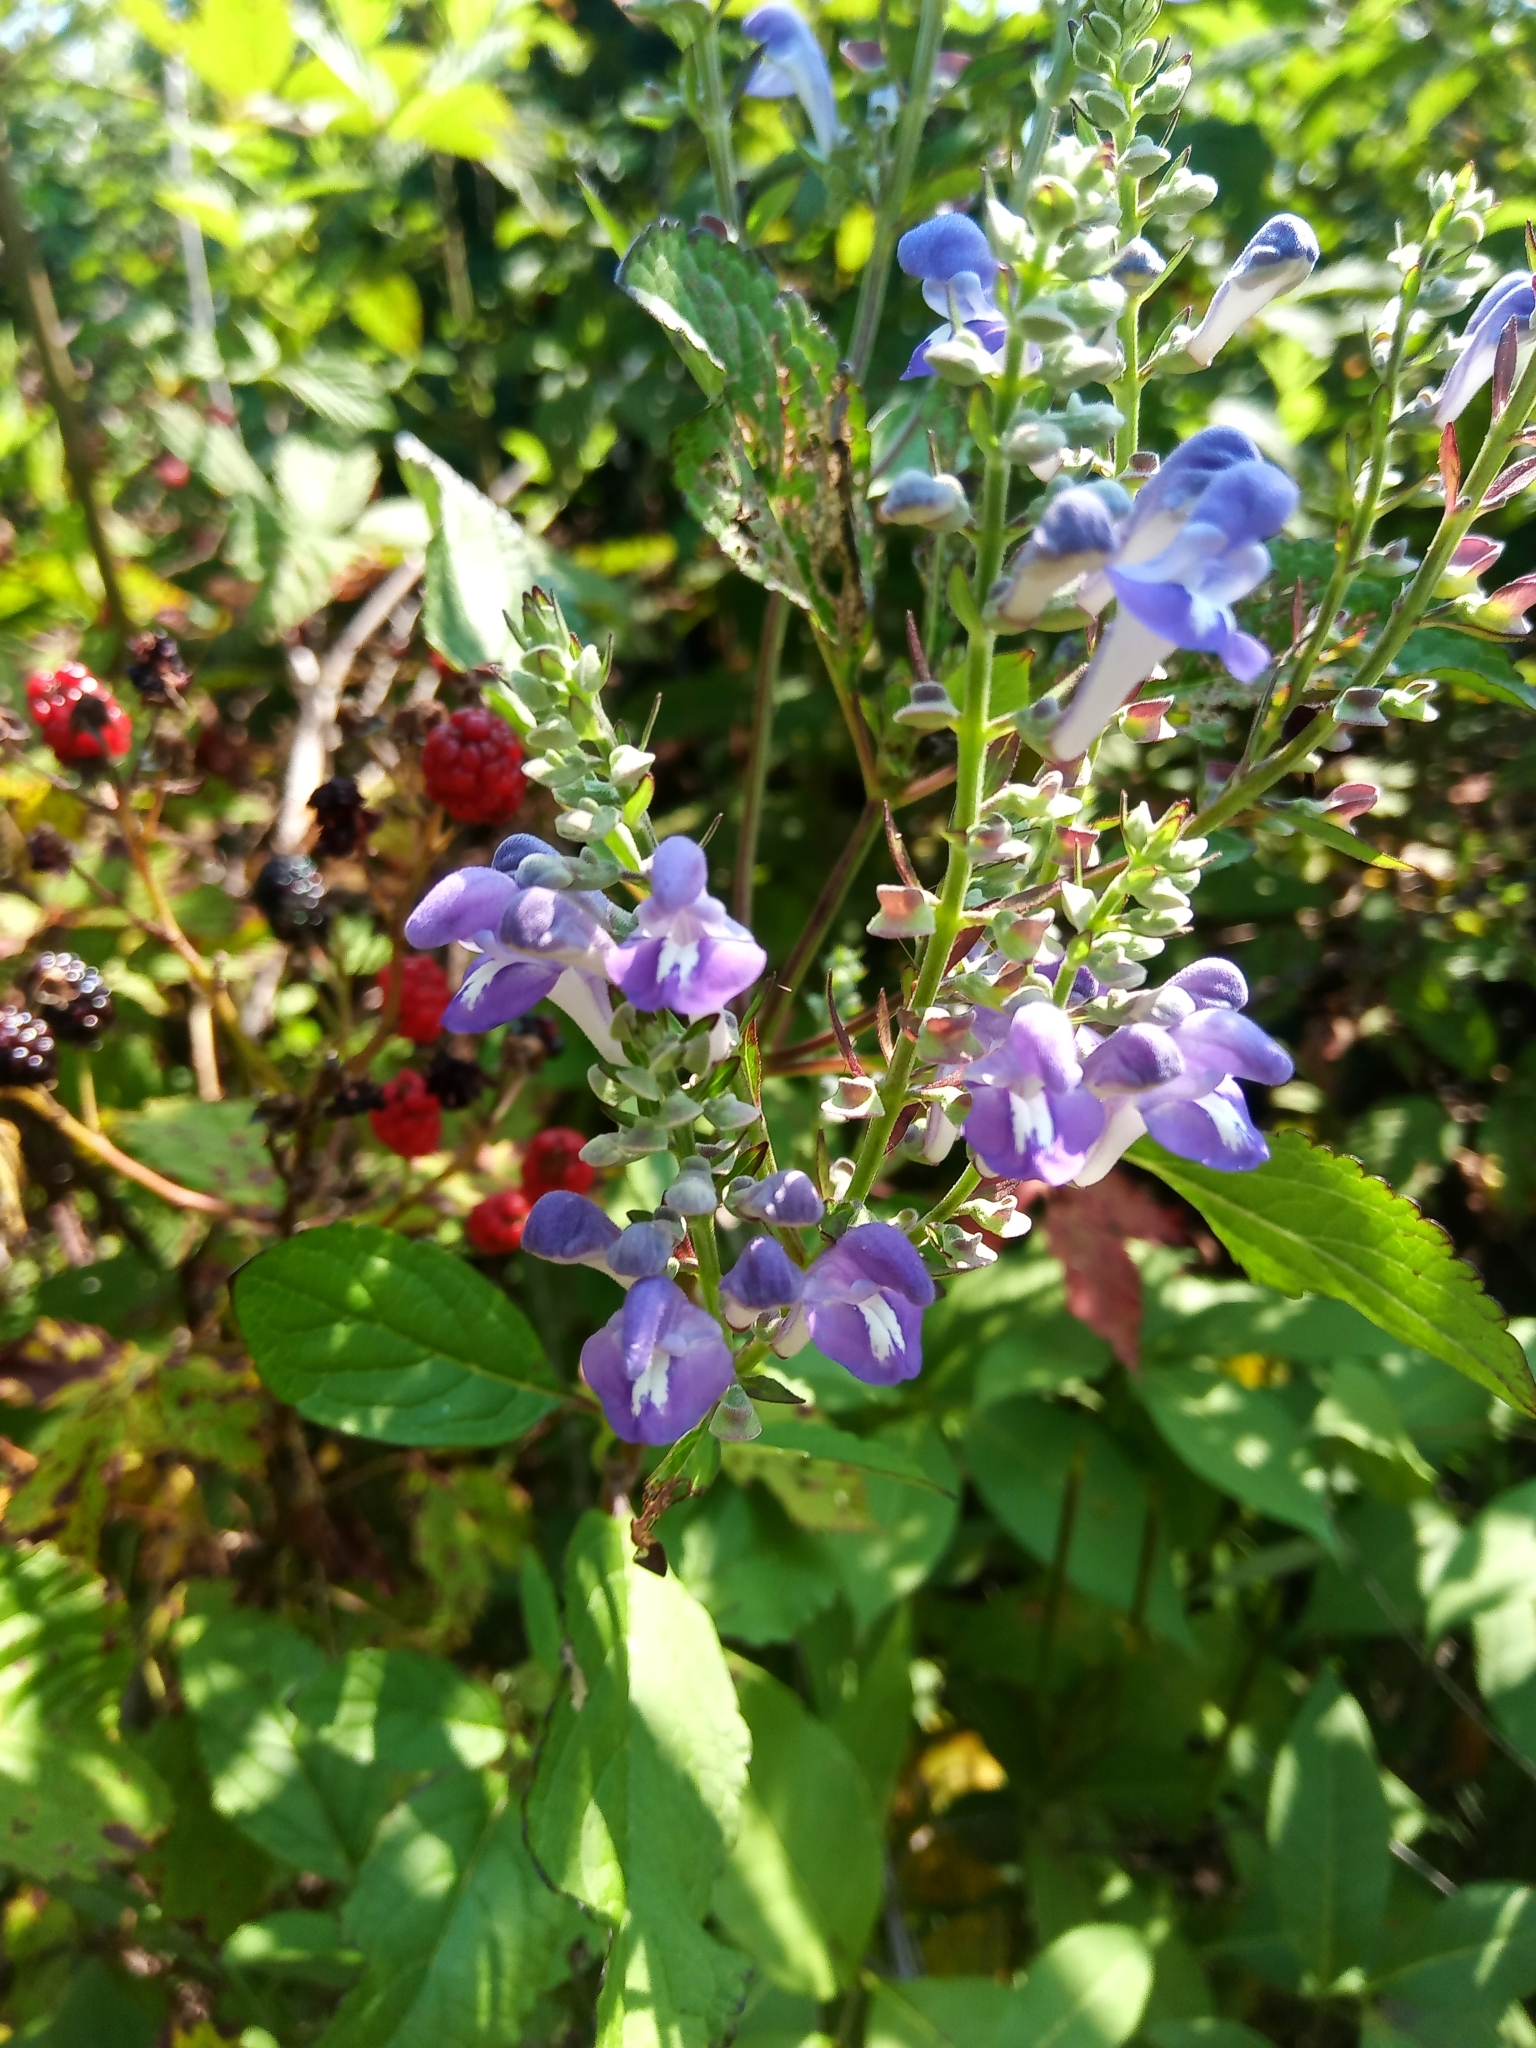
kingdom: Plantae
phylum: Tracheophyta
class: Magnoliopsida
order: Lamiales
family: Lamiaceae
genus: Scutellaria
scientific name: Scutellaria incana
